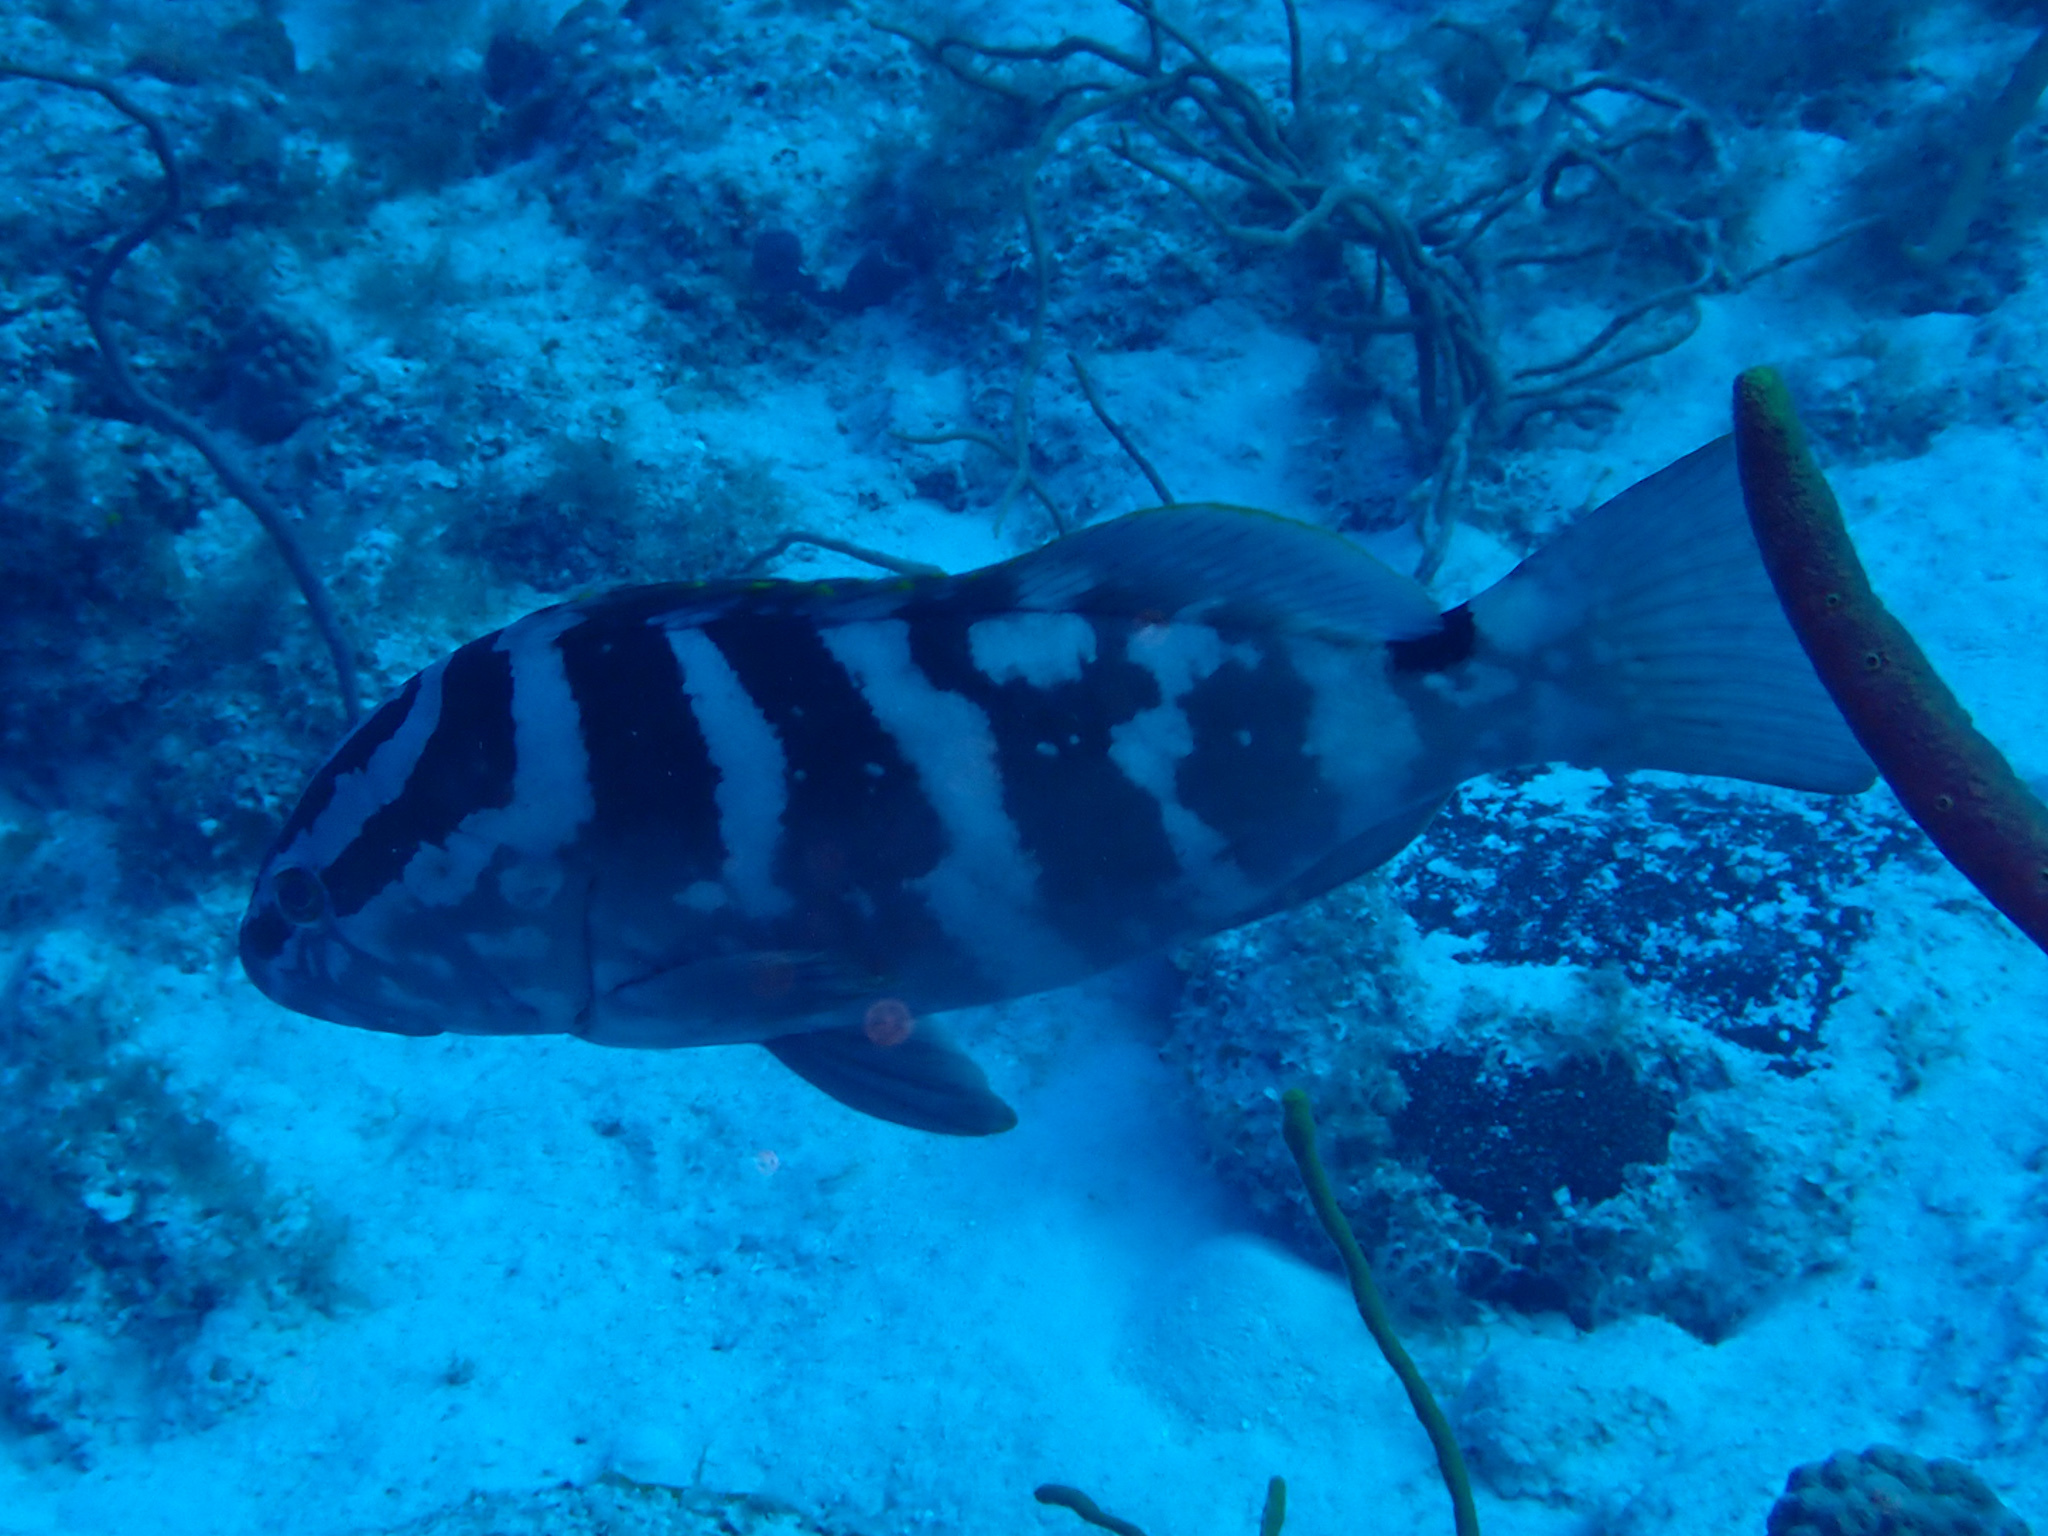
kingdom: Animalia
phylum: Chordata
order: Perciformes
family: Serranidae
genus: Epinephelus
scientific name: Epinephelus striatus
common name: Nassau grouper
